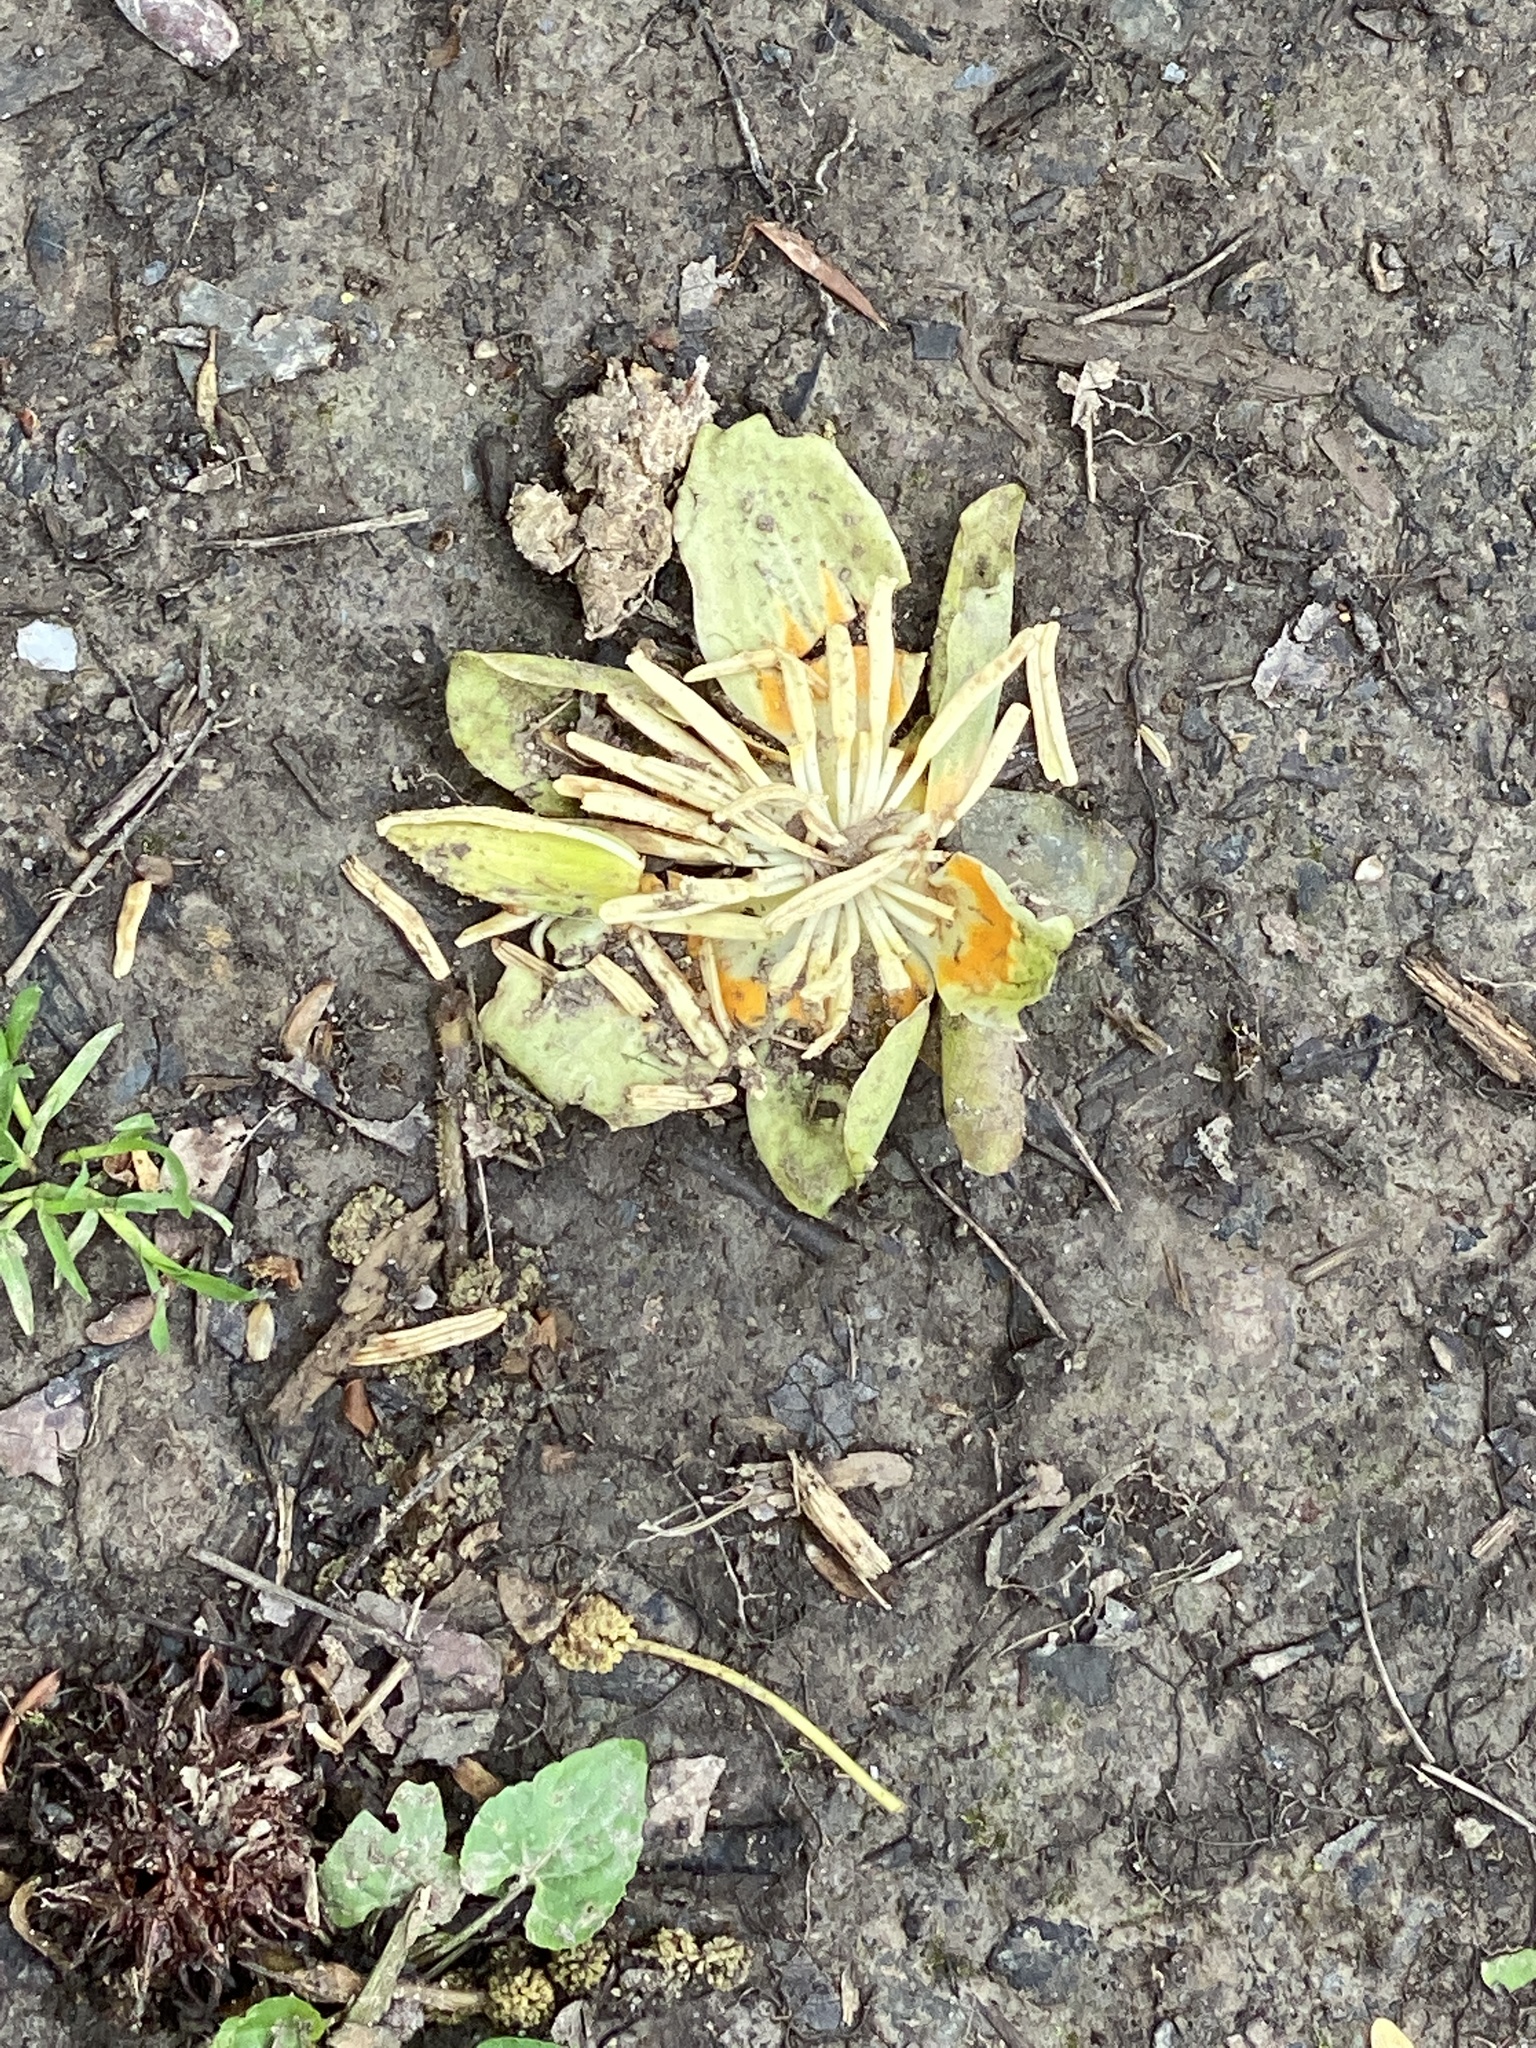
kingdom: Plantae
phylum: Tracheophyta
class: Magnoliopsida
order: Magnoliales
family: Magnoliaceae
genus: Liriodendron
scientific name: Liriodendron tulipifera
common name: Tulip tree
